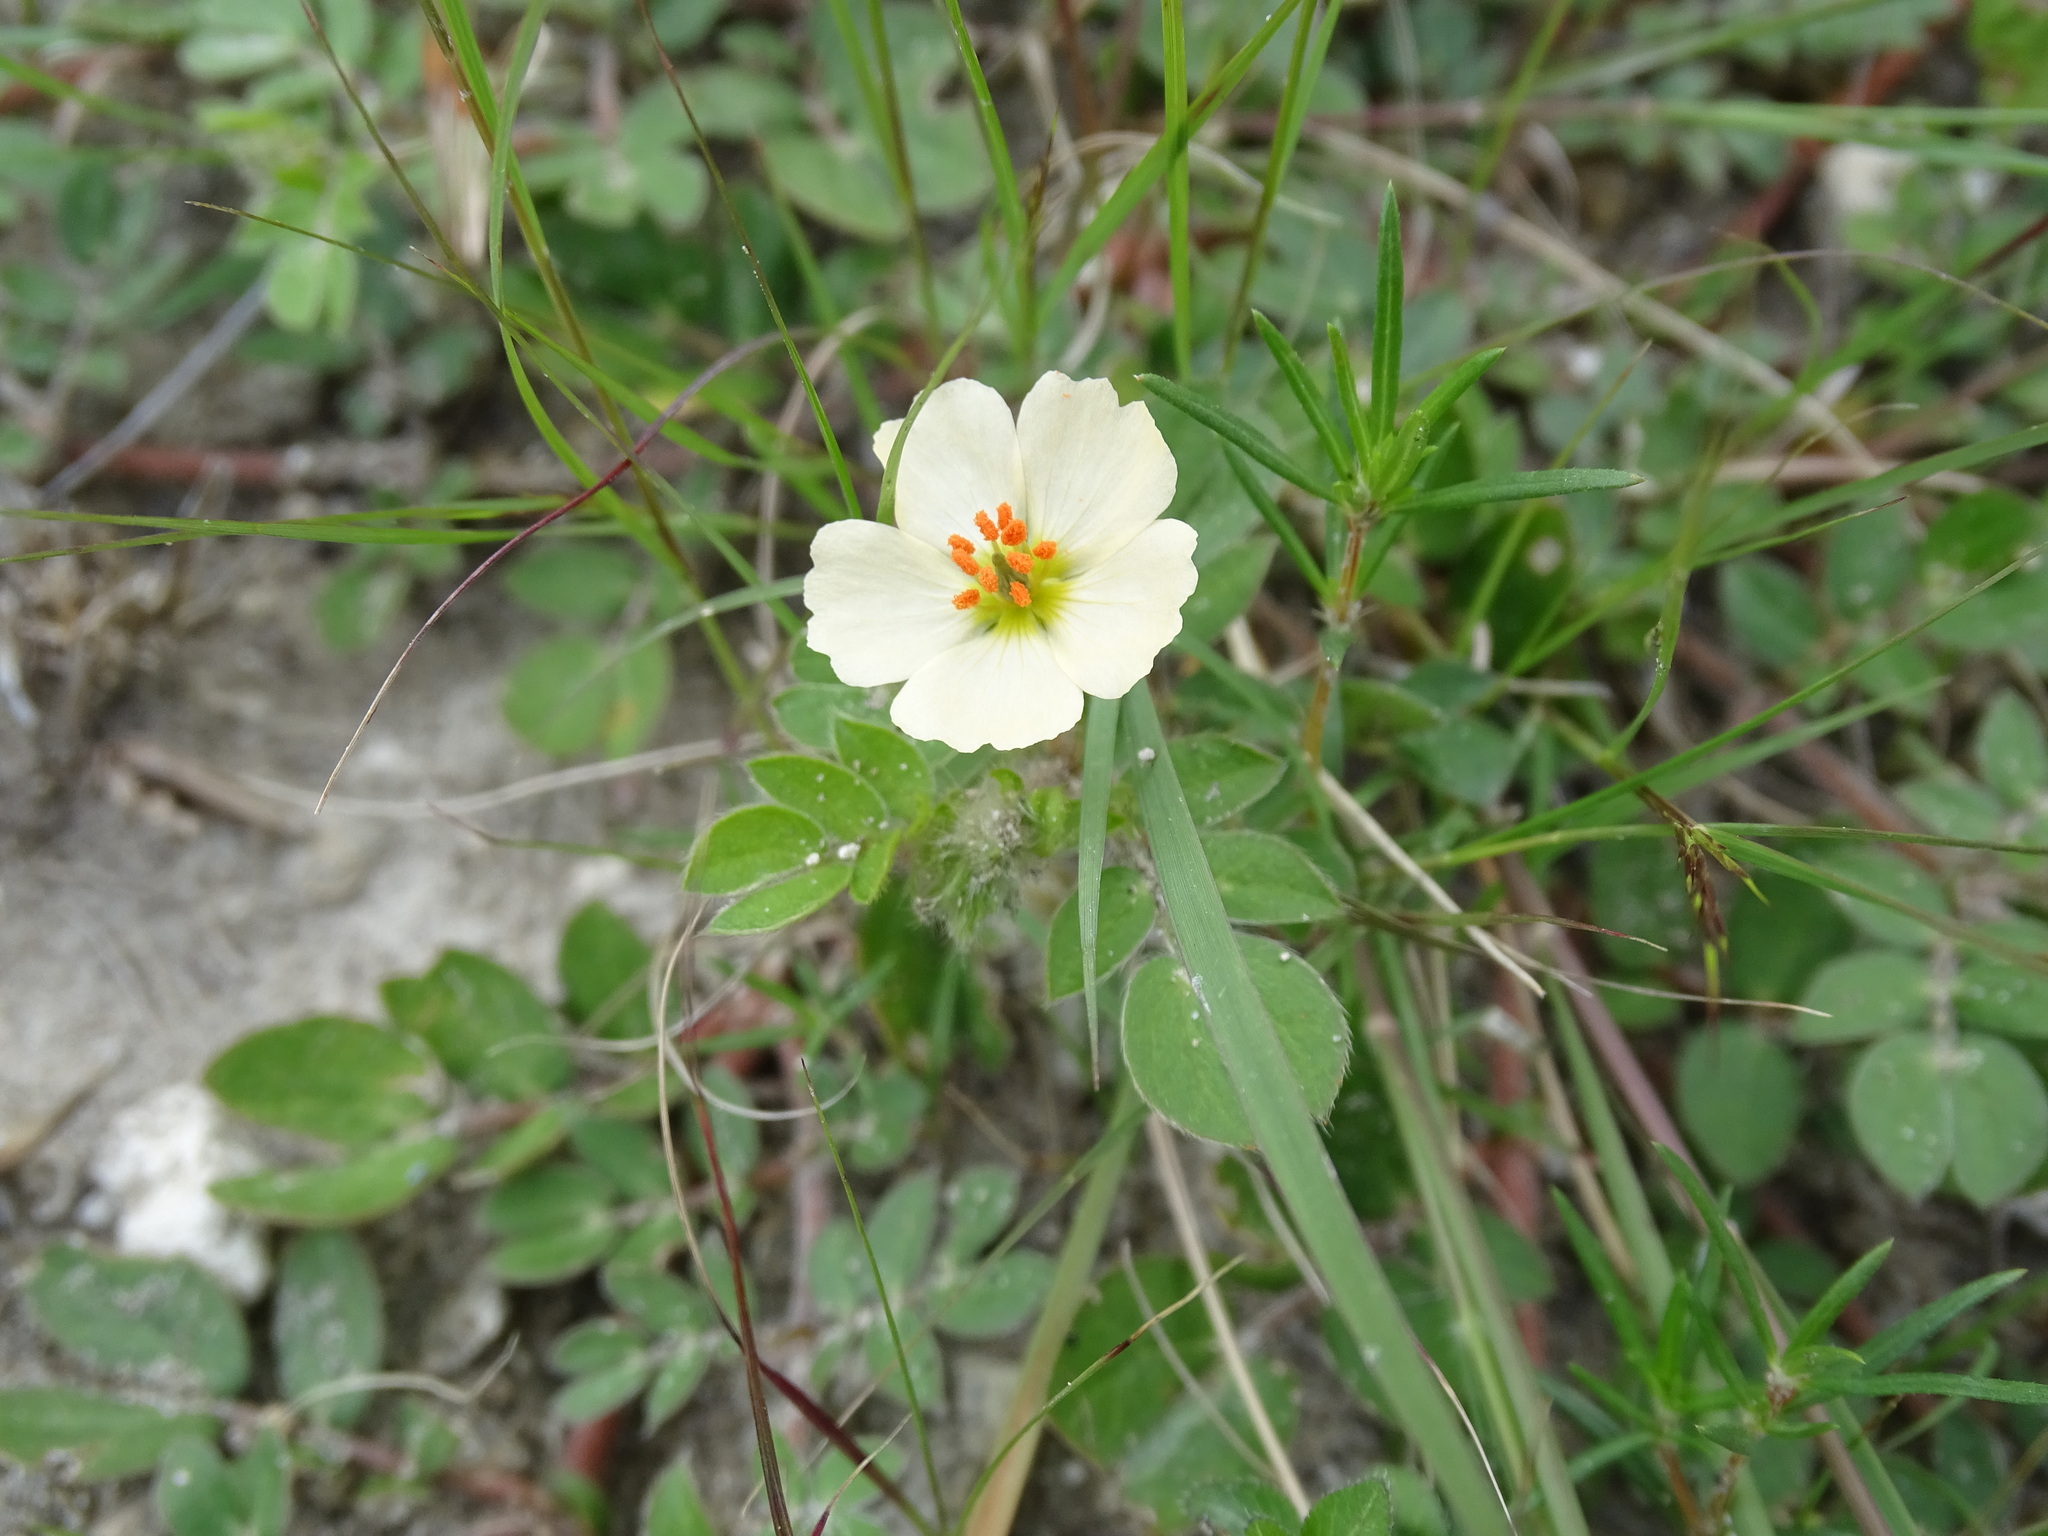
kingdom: Plantae
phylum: Tracheophyta
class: Magnoliopsida
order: Zygophyllales
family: Zygophyllaceae
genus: Kallstroemia
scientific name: Kallstroemia rosei
